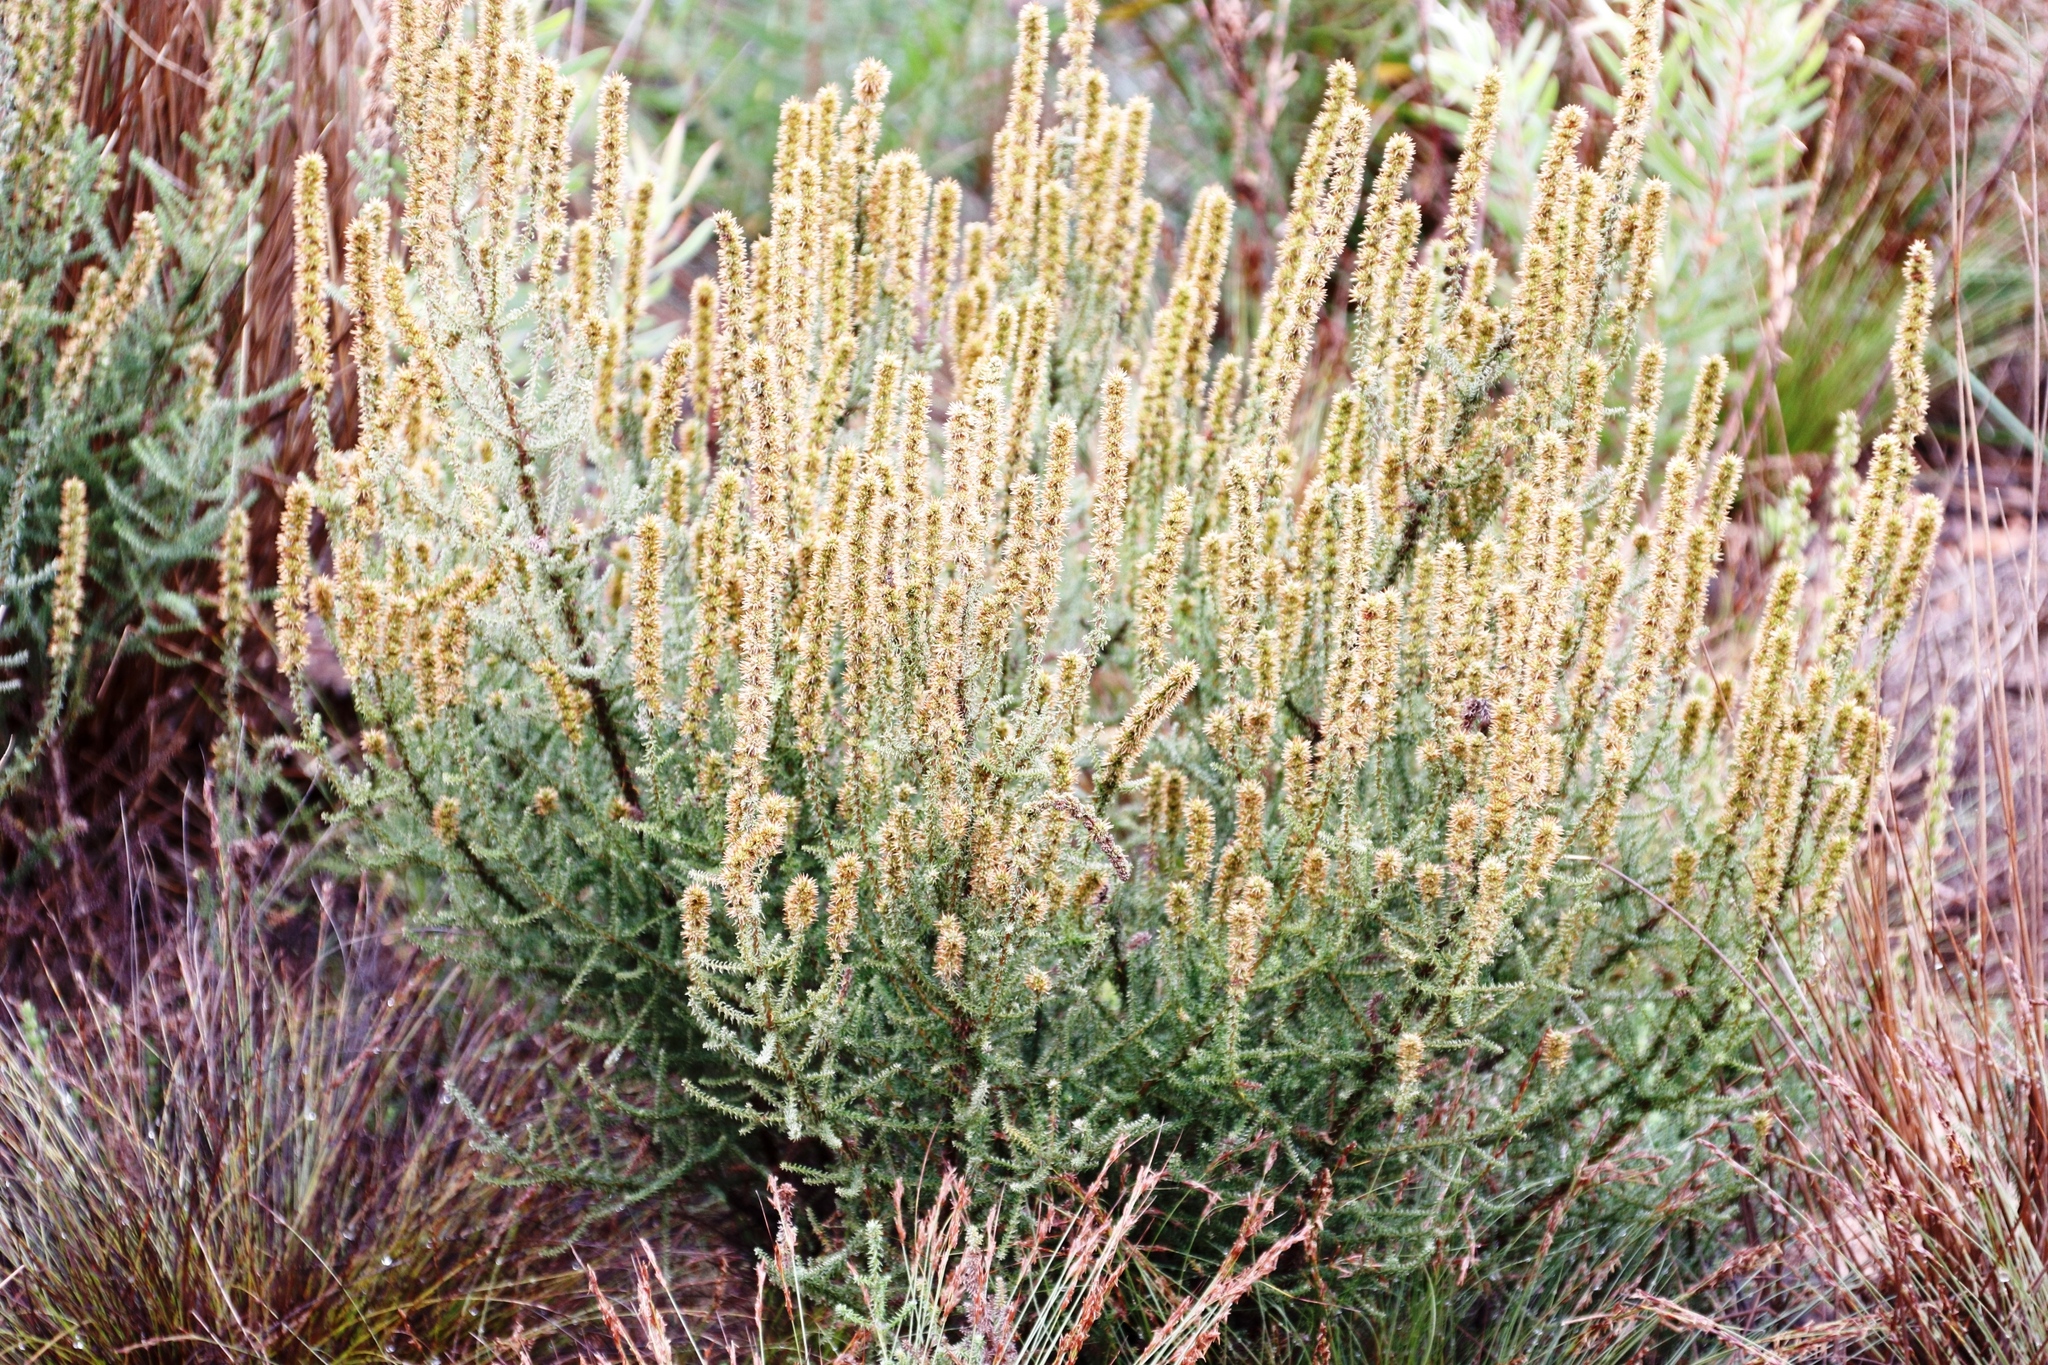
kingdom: Plantae
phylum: Tracheophyta
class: Magnoliopsida
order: Asterales
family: Asteraceae
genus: Seriphium
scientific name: Seriphium cinereum
